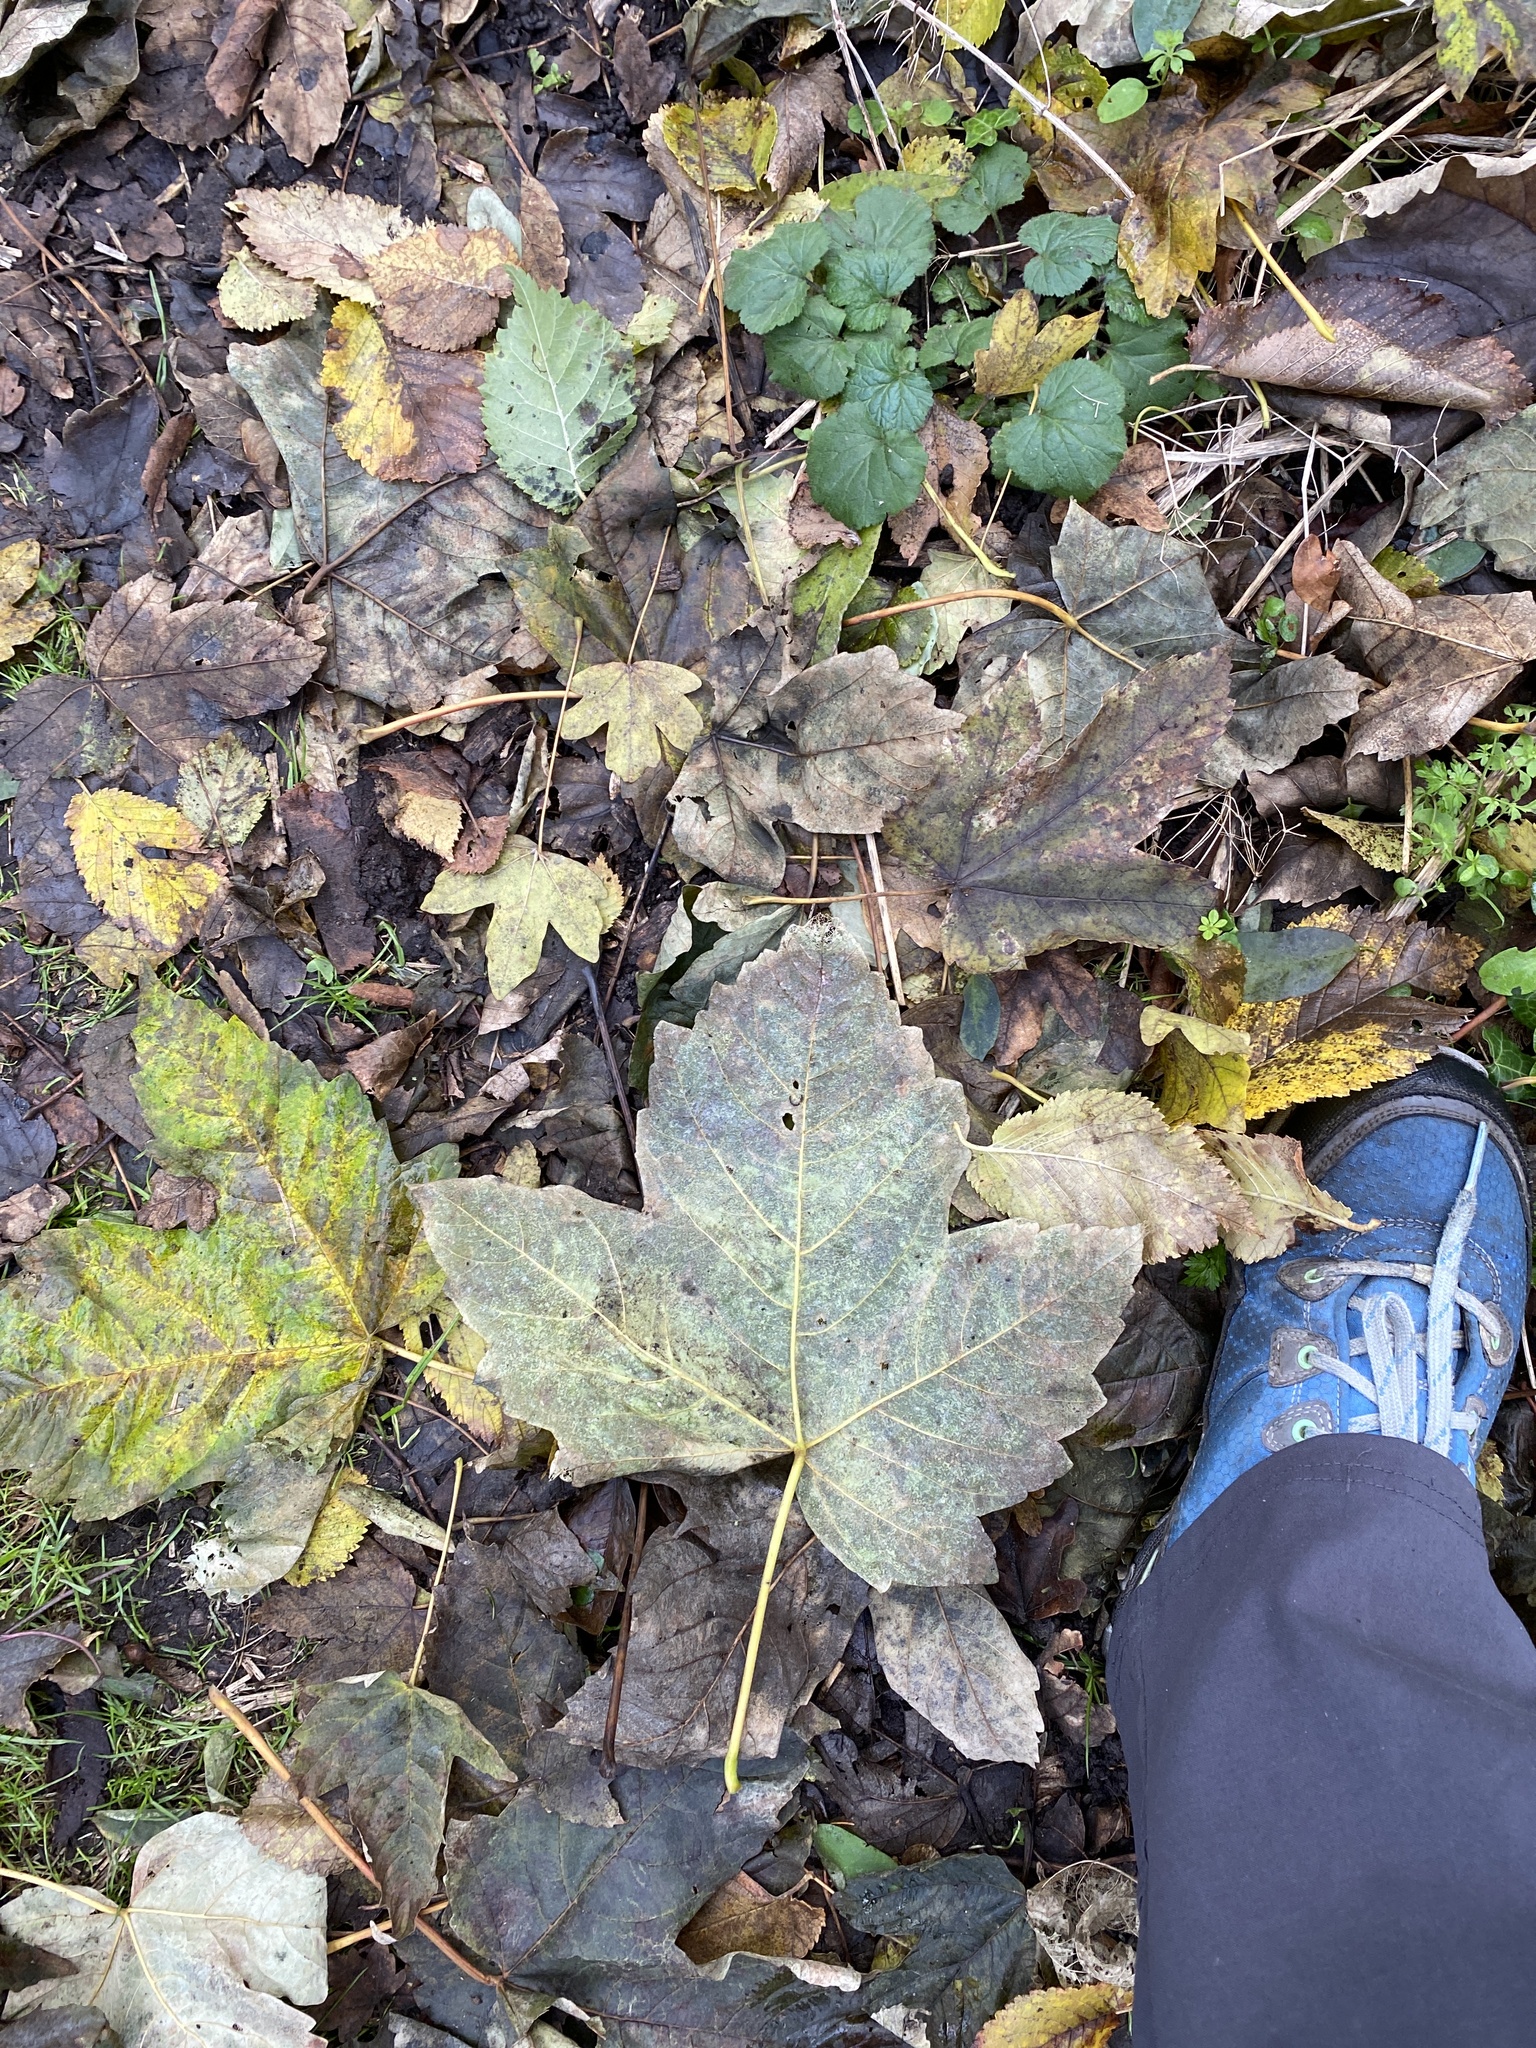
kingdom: Plantae
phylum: Tracheophyta
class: Magnoliopsida
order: Sapindales
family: Sapindaceae
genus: Acer
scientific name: Acer pseudoplatanus
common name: Sycamore
